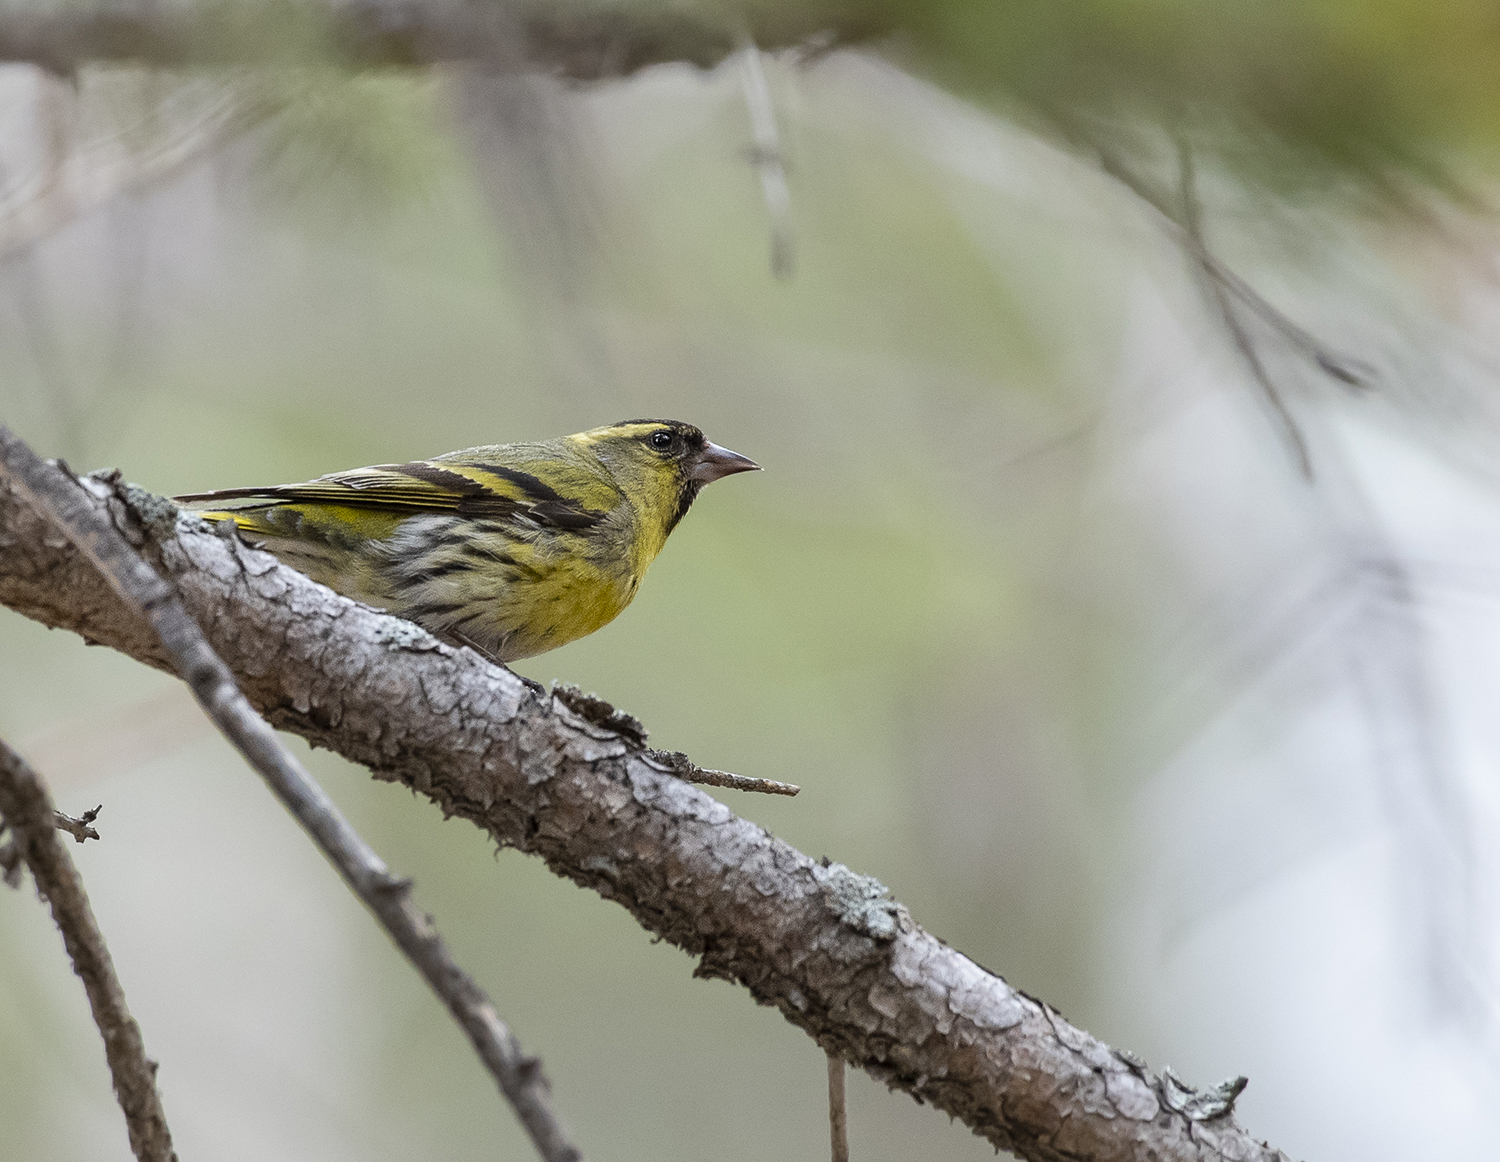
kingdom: Animalia
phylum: Chordata
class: Aves
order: Passeriformes
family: Fringillidae
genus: Spinus
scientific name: Spinus spinus
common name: Eurasian siskin
